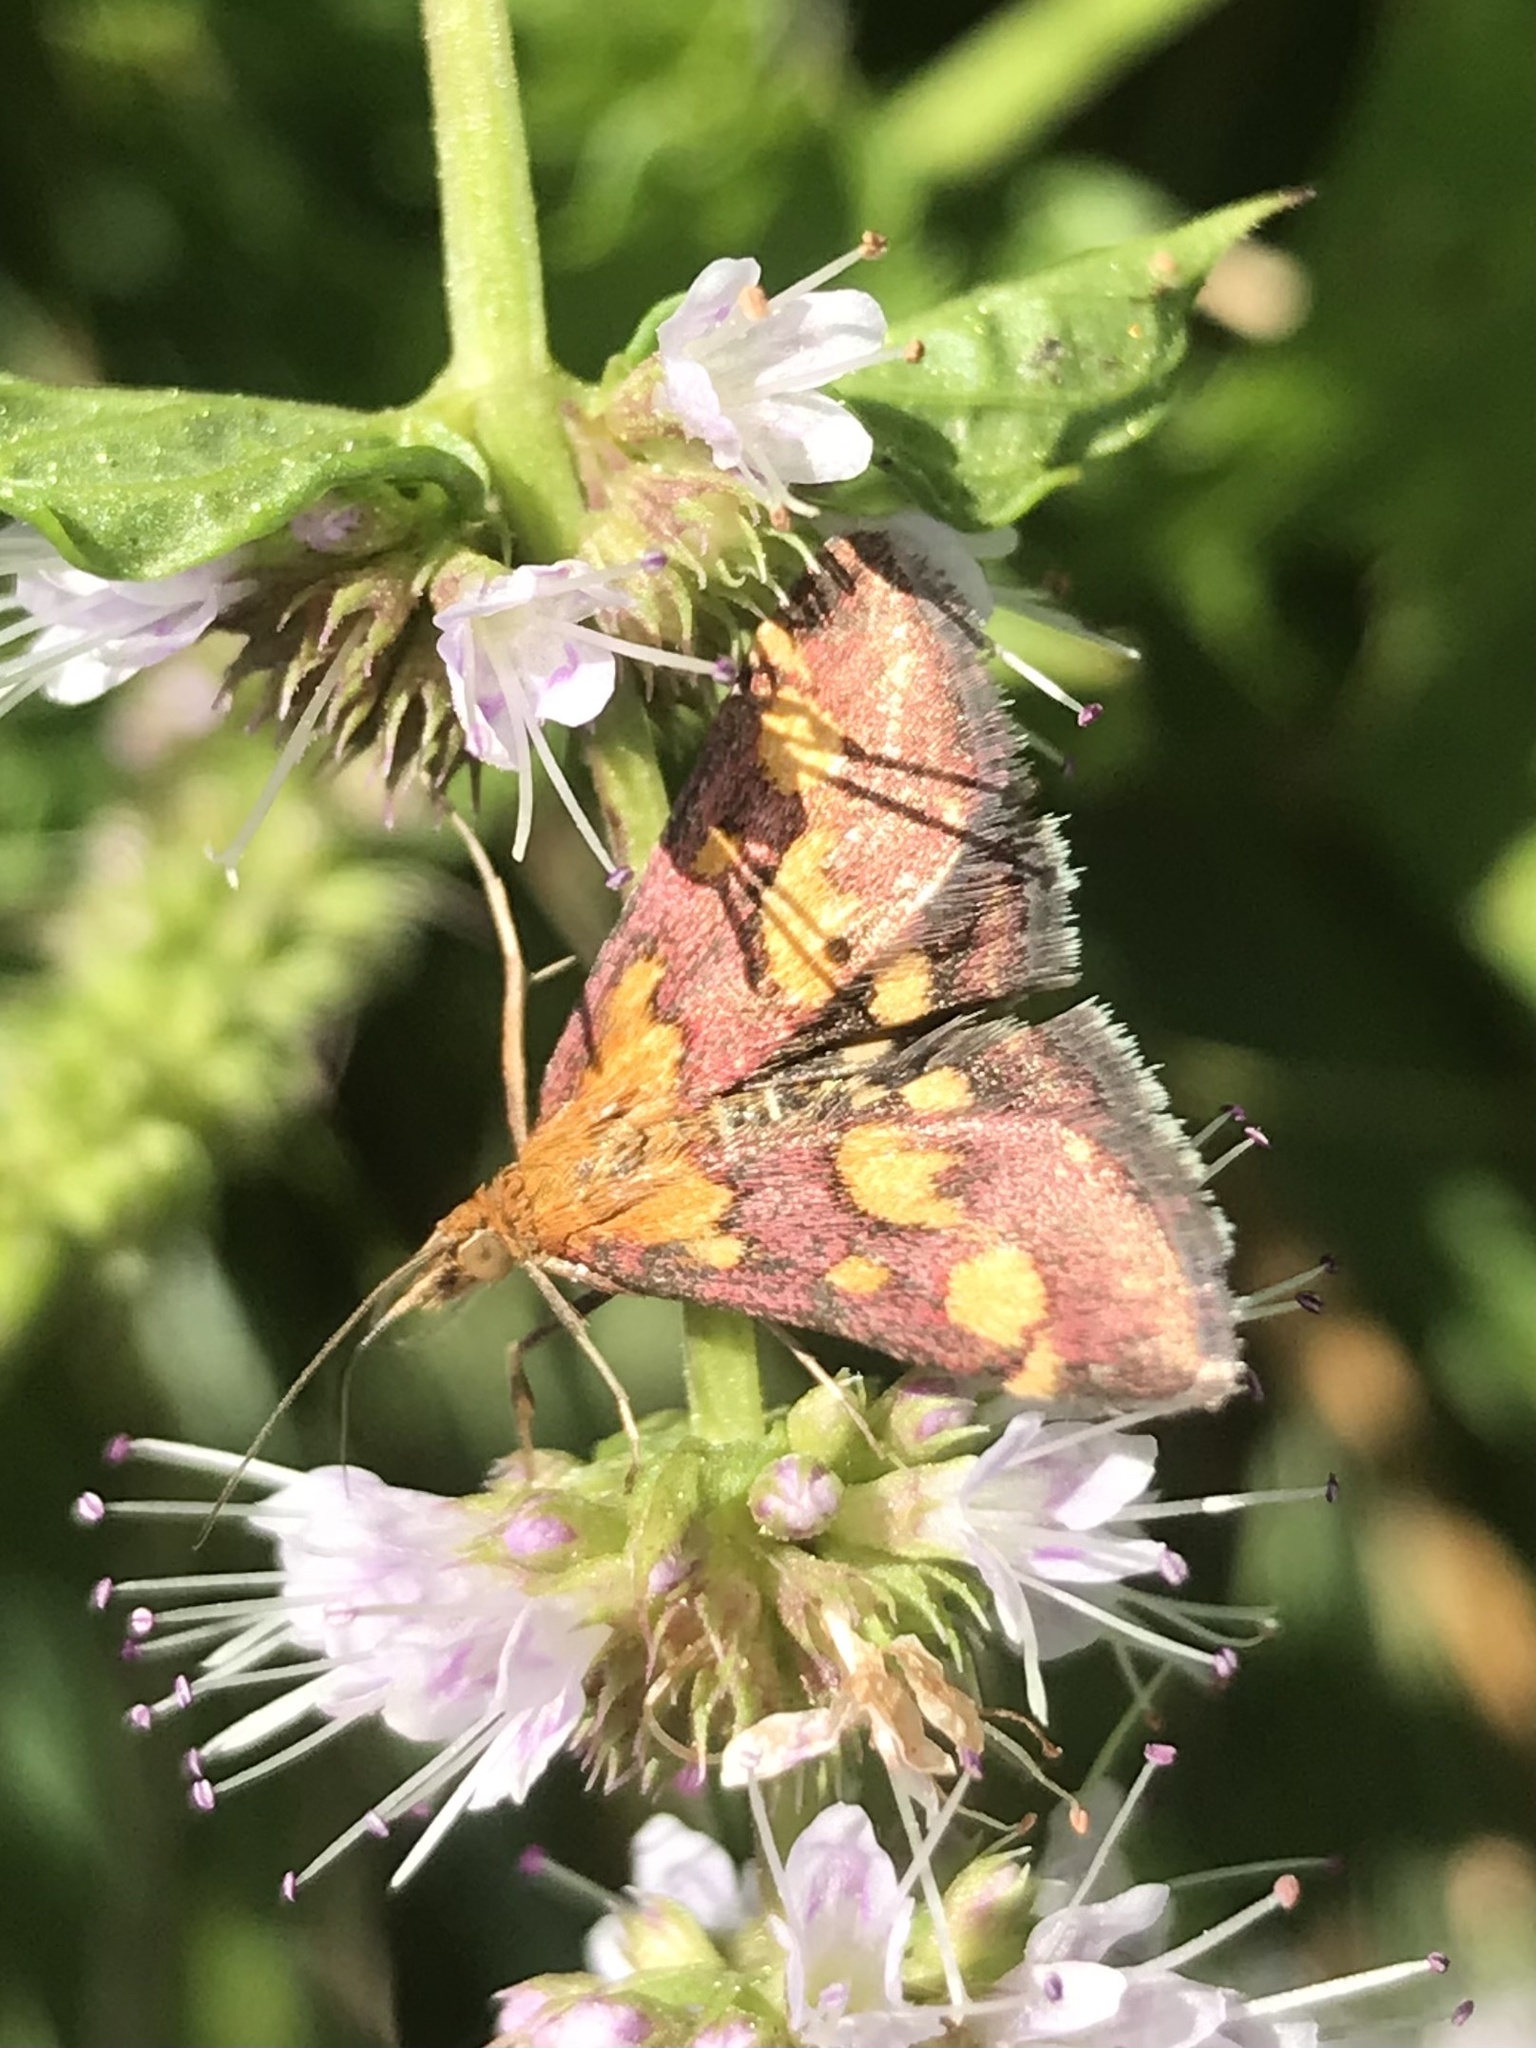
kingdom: Animalia
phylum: Arthropoda
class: Insecta
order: Lepidoptera
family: Crambidae
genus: Pyrausta
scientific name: Pyrausta purpuralis
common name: Common purple & gold
